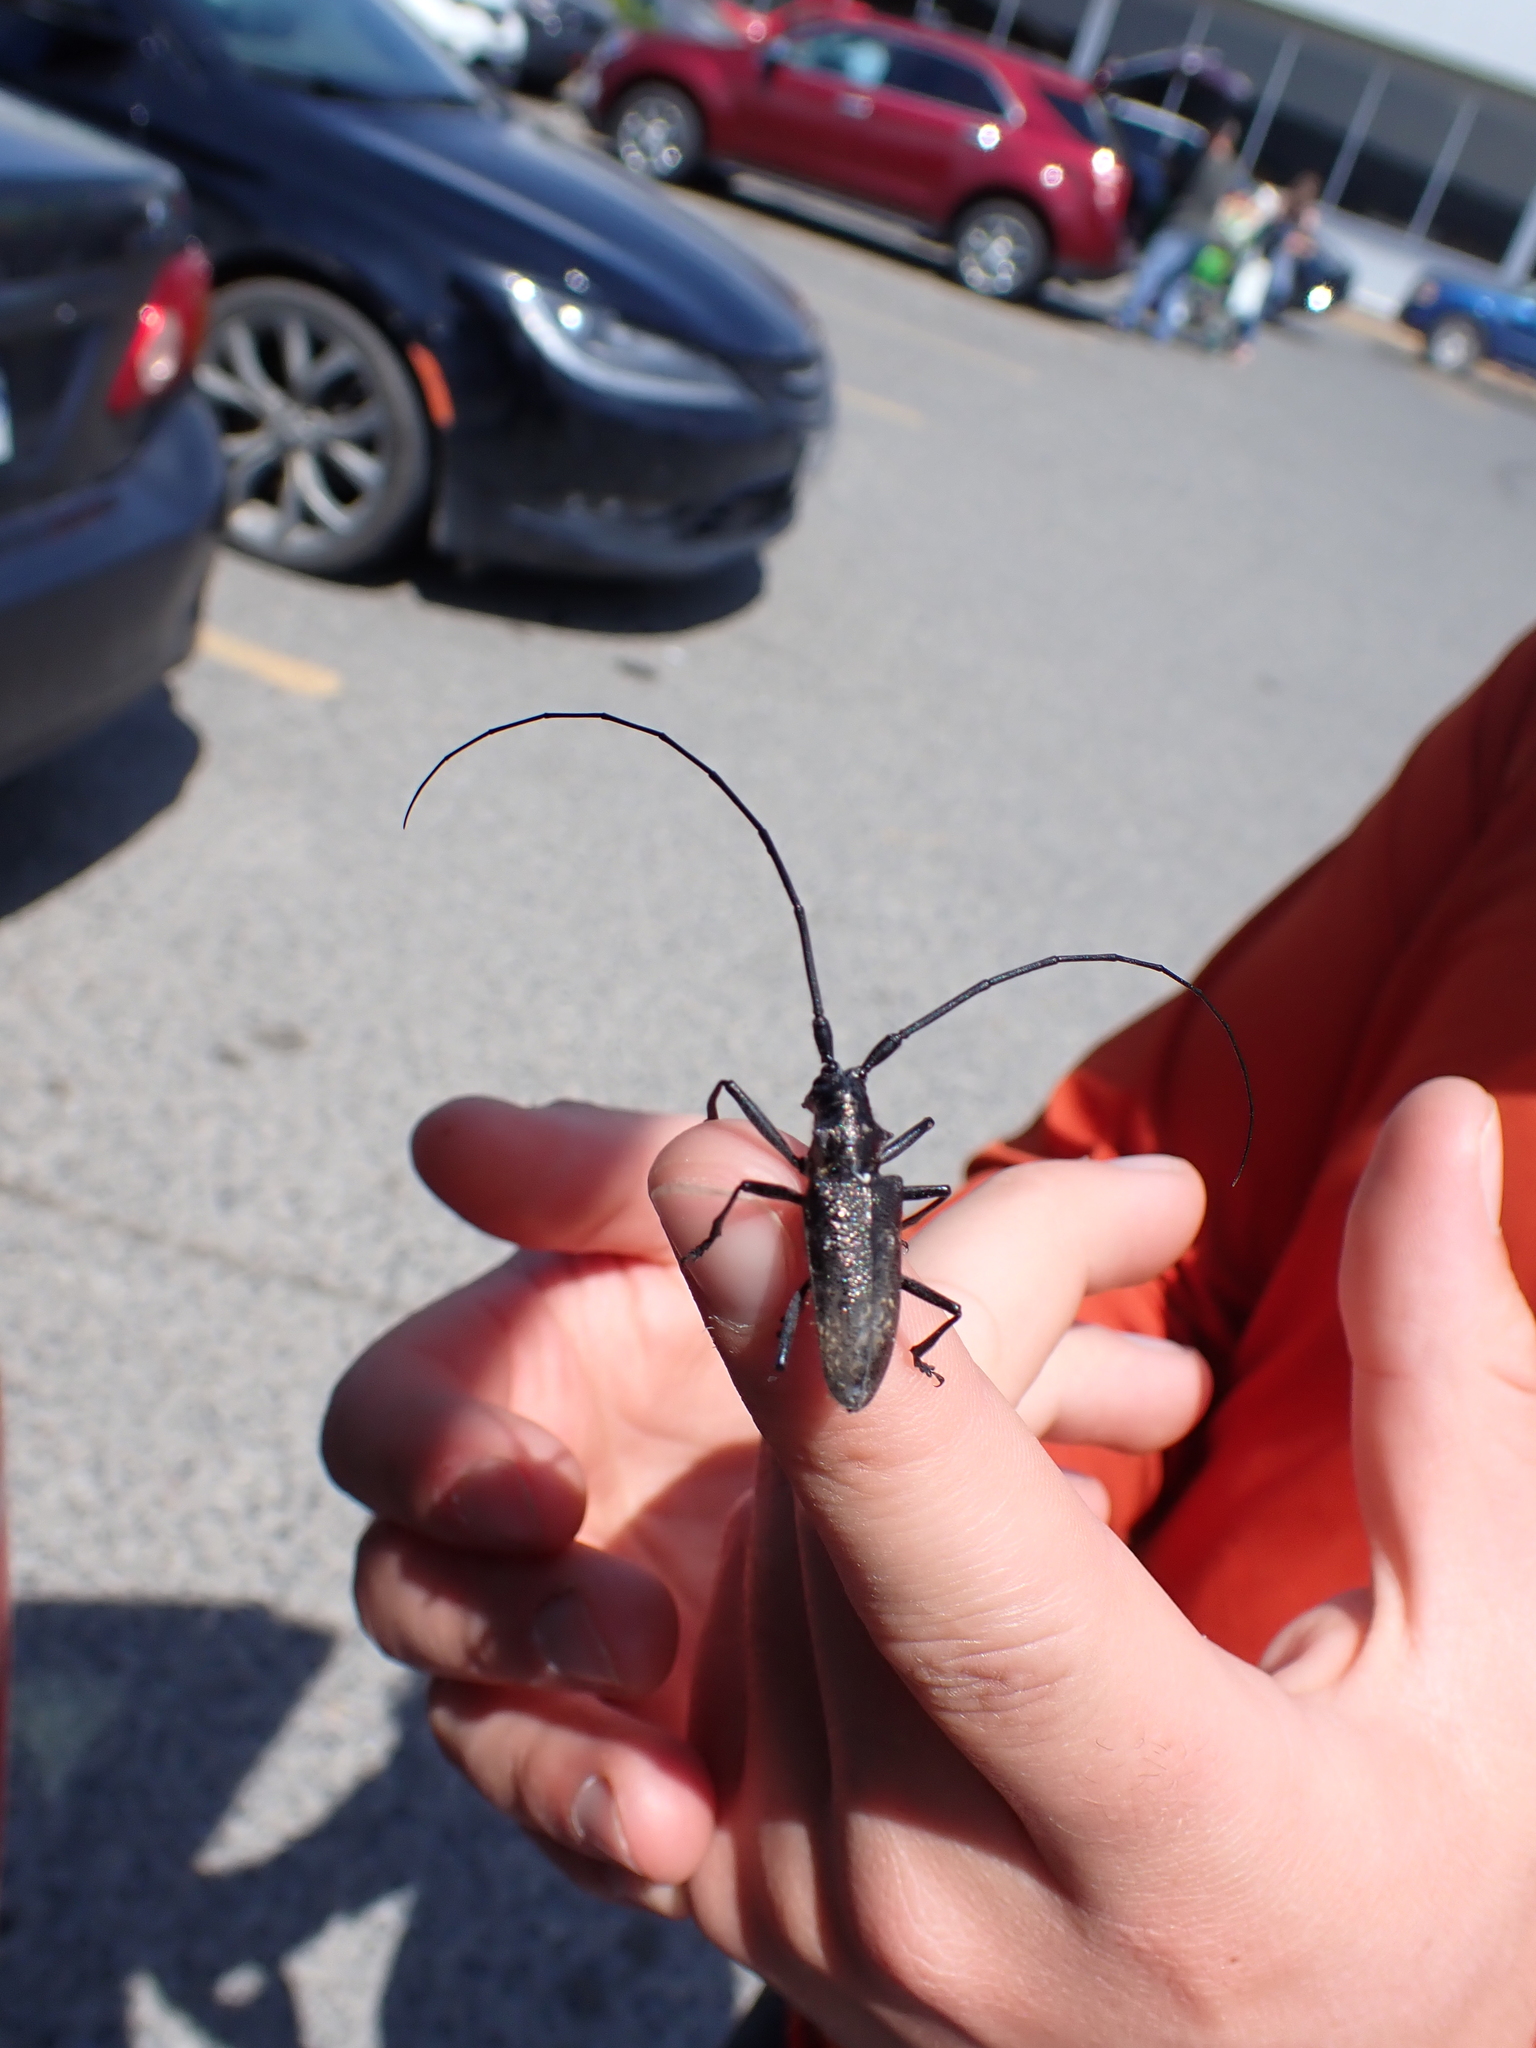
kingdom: Animalia
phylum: Arthropoda
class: Insecta
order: Coleoptera
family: Cerambycidae
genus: Monochamus
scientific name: Monochamus scutellatus
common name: White-spotted sawyer beetle
